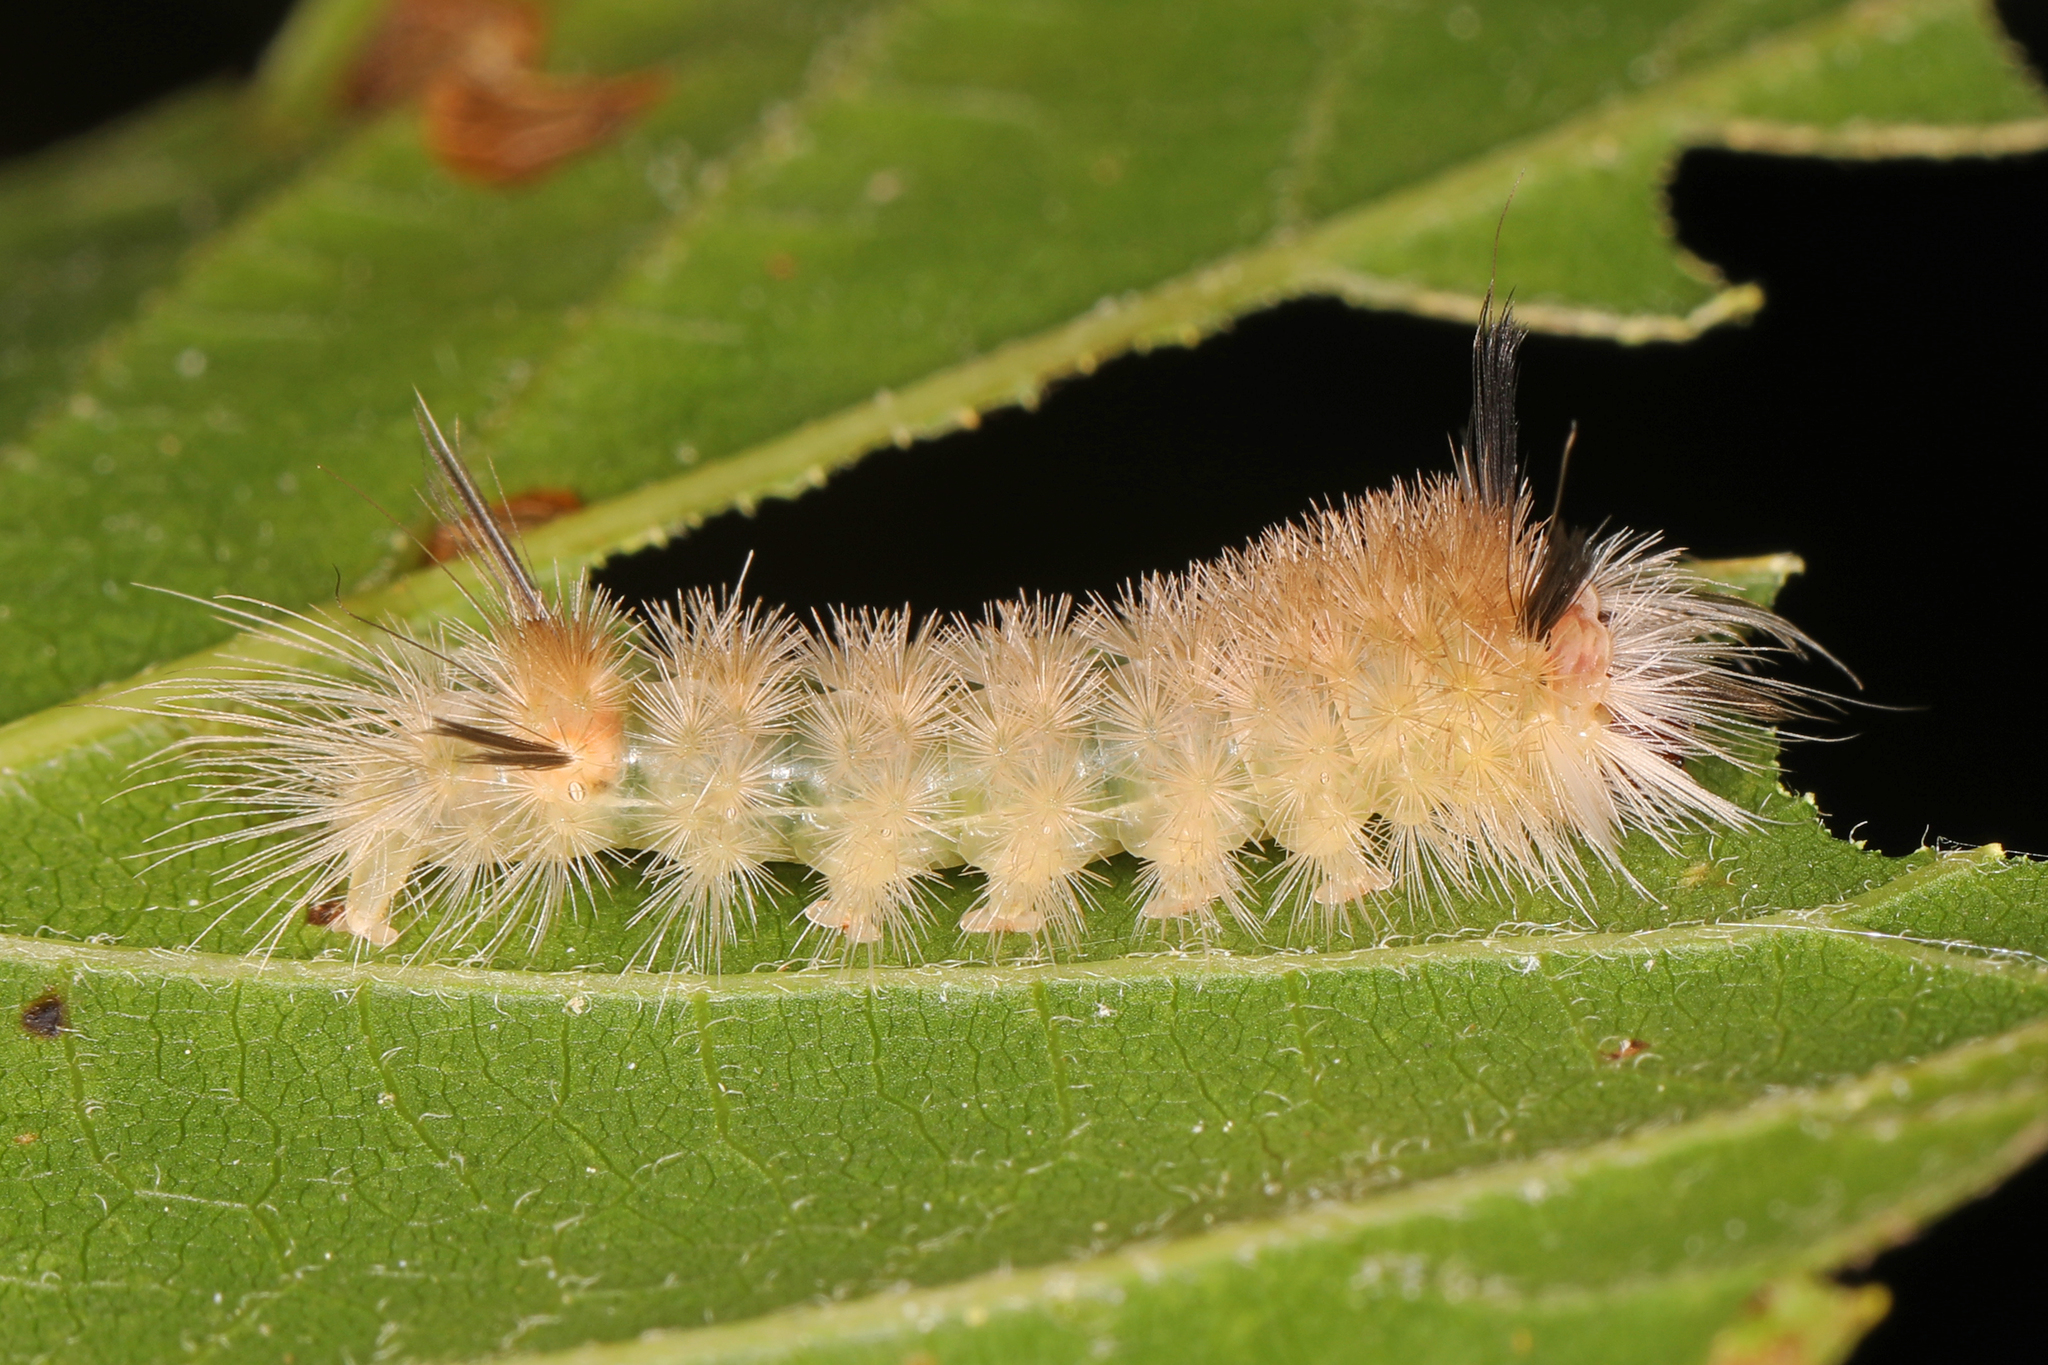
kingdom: Animalia
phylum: Arthropoda
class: Insecta
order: Lepidoptera
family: Erebidae
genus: Halysidota
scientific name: Halysidota tessellaris
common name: Banded tussock moth
